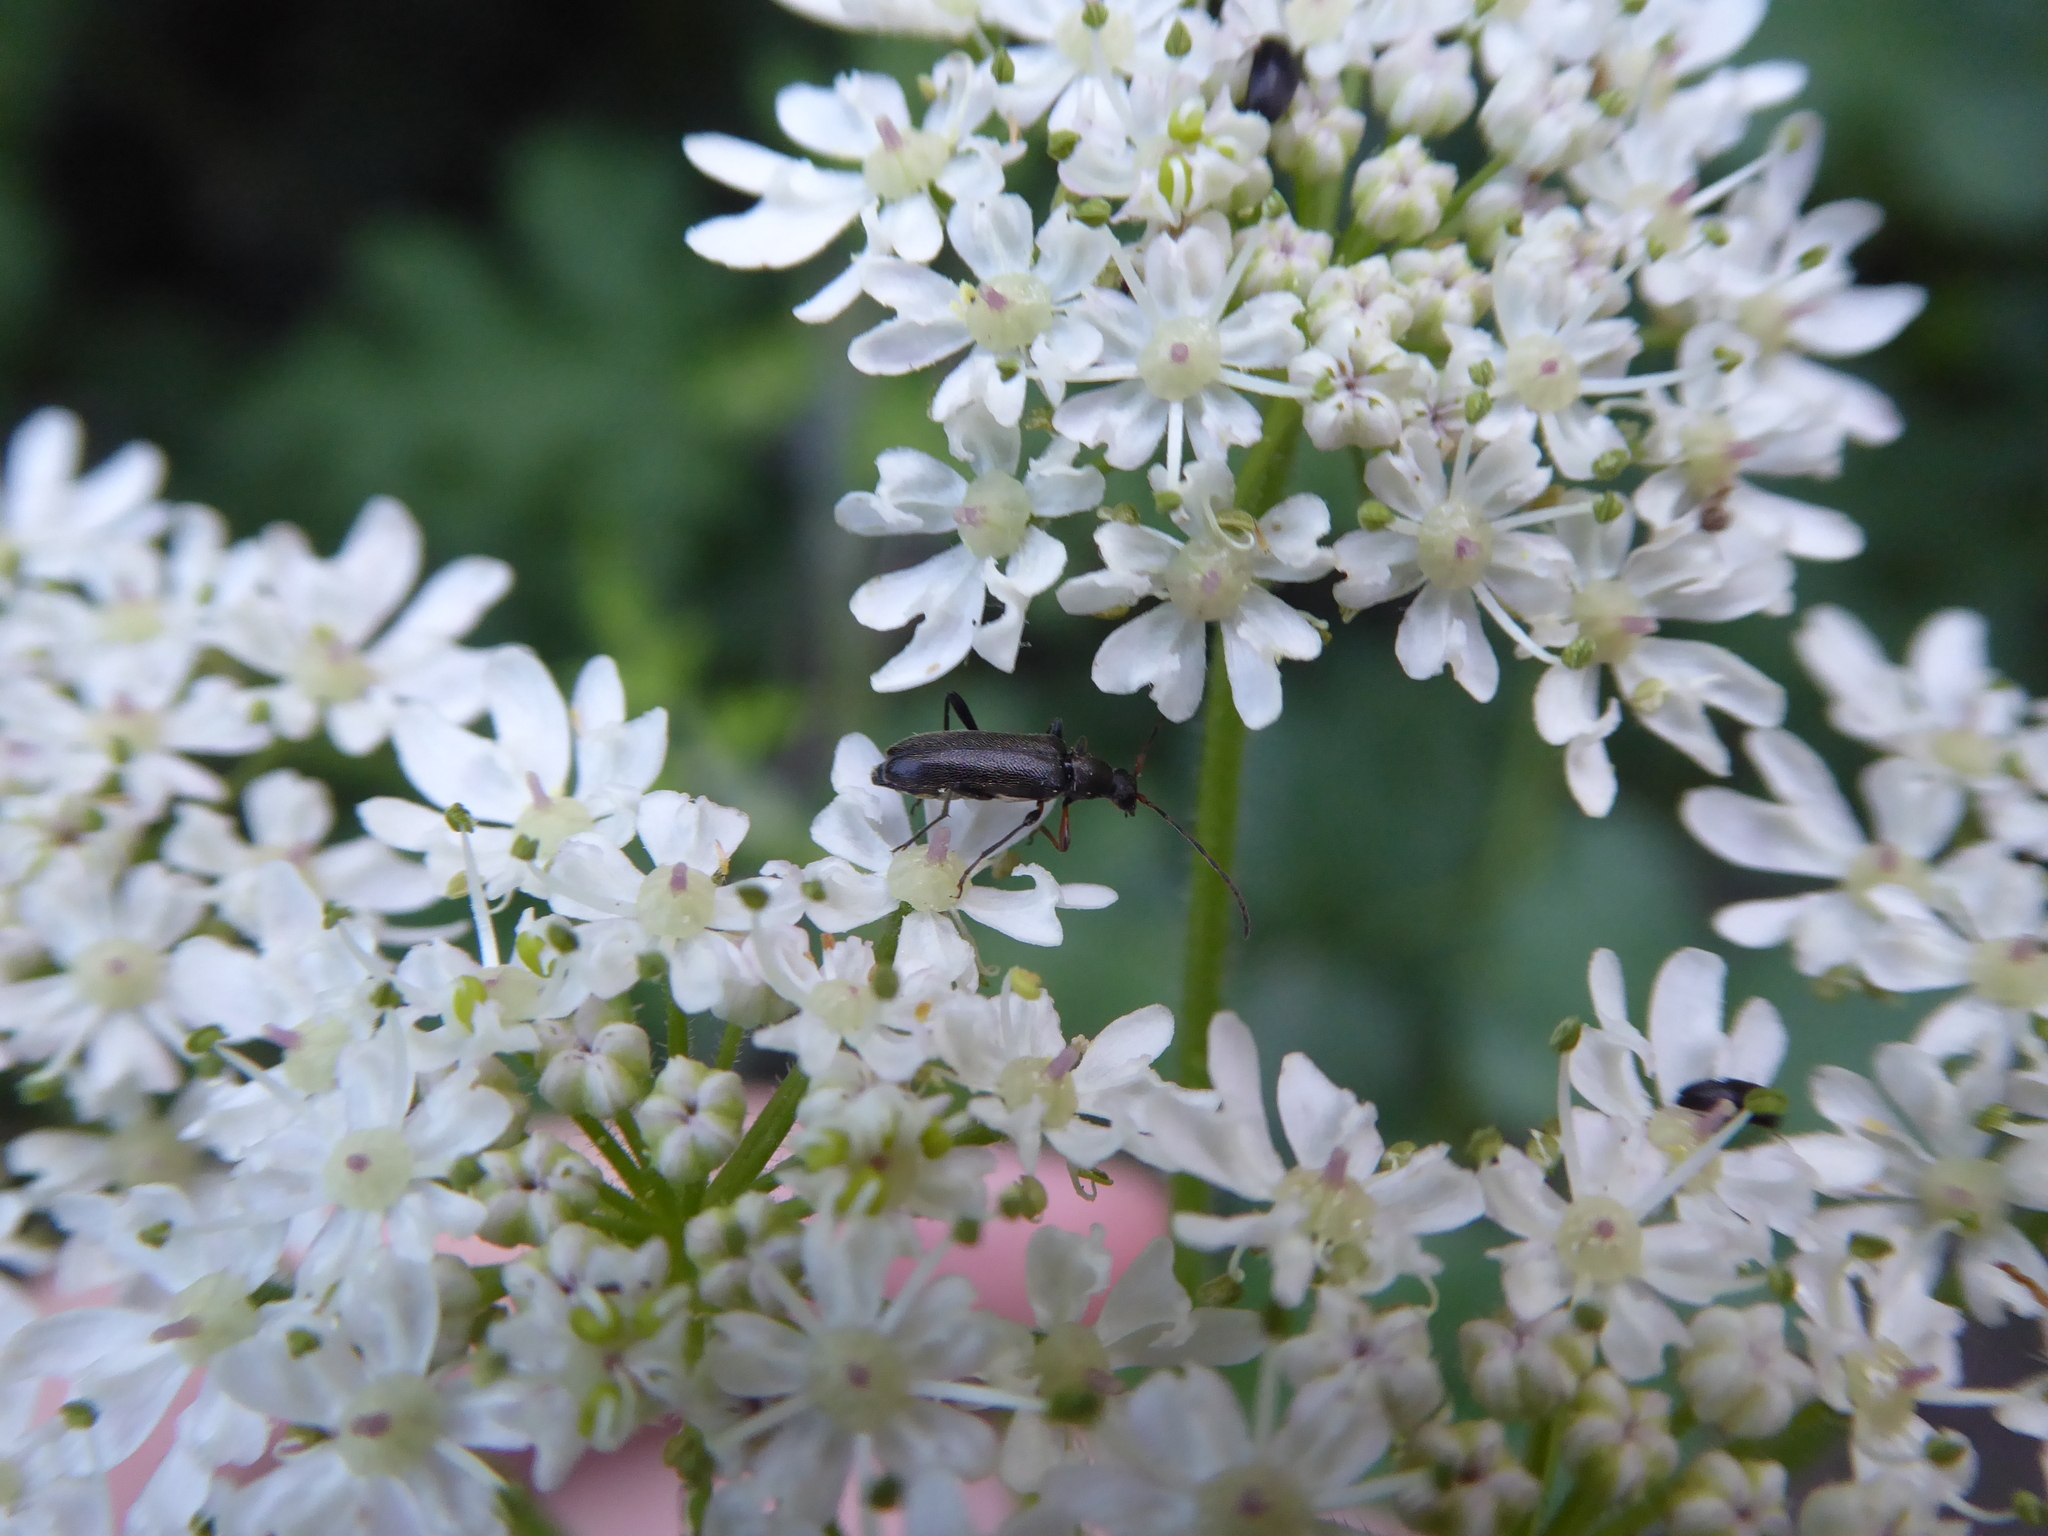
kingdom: Animalia
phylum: Arthropoda
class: Insecta
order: Coleoptera
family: Cerambycidae
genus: Grammoptera
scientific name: Grammoptera ruficornis
